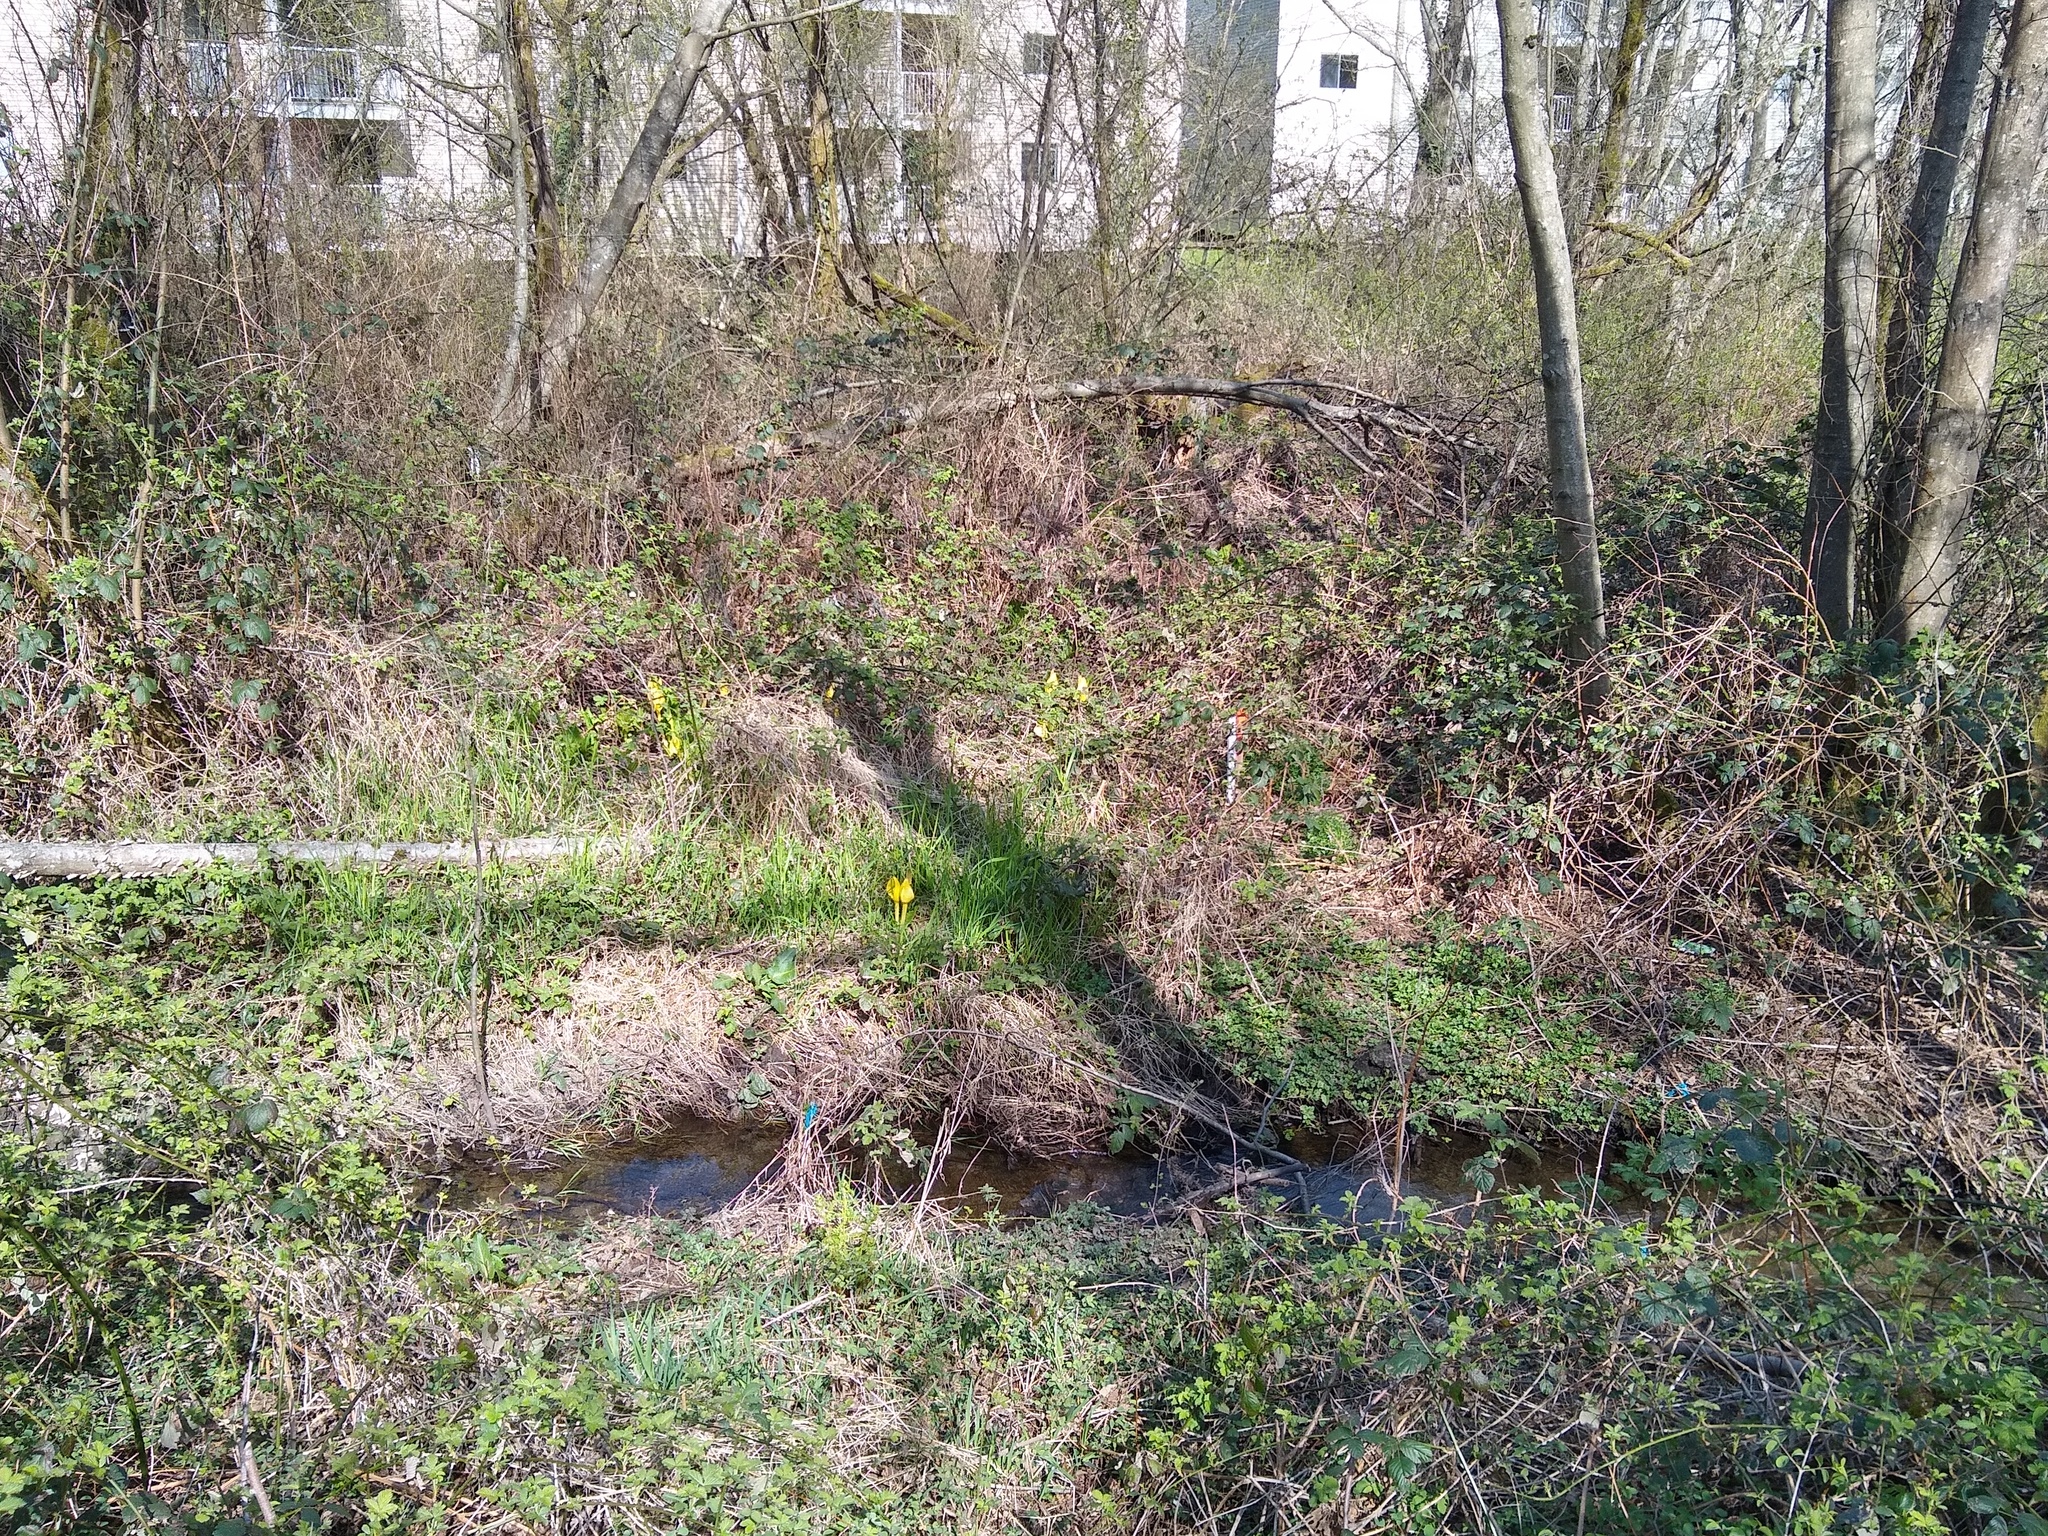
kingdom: Plantae
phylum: Tracheophyta
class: Liliopsida
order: Alismatales
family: Araceae
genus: Lysichiton
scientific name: Lysichiton americanus
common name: American skunk cabbage
